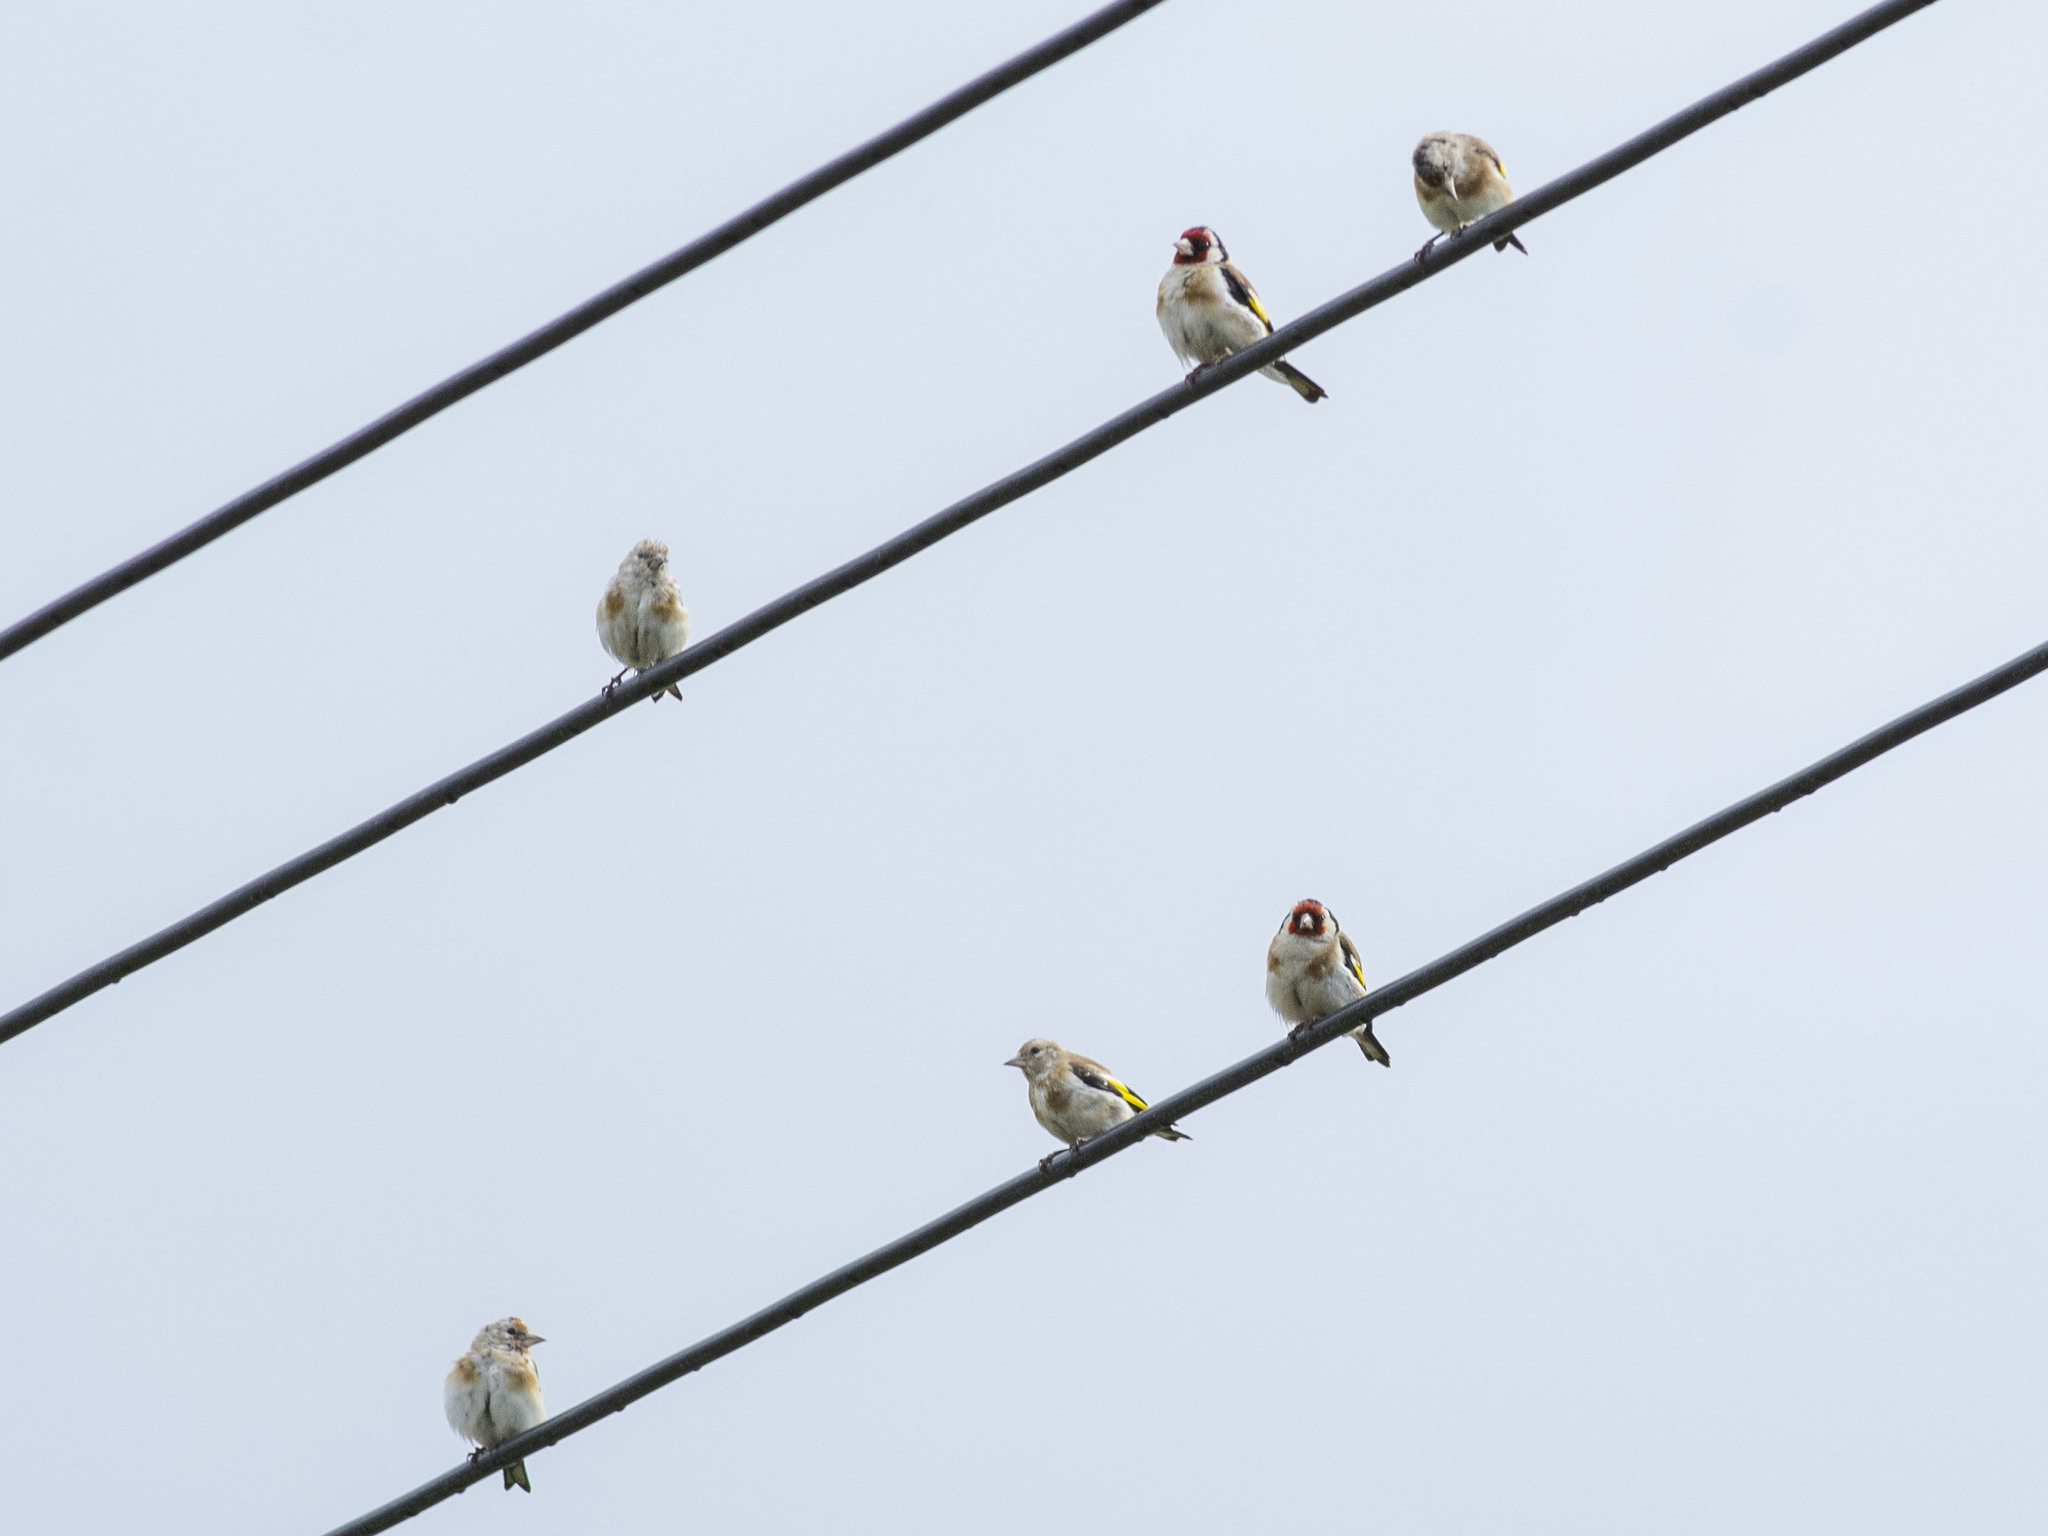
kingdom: Animalia
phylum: Chordata
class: Aves
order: Passeriformes
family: Fringillidae
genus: Carduelis
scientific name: Carduelis carduelis
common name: European goldfinch
